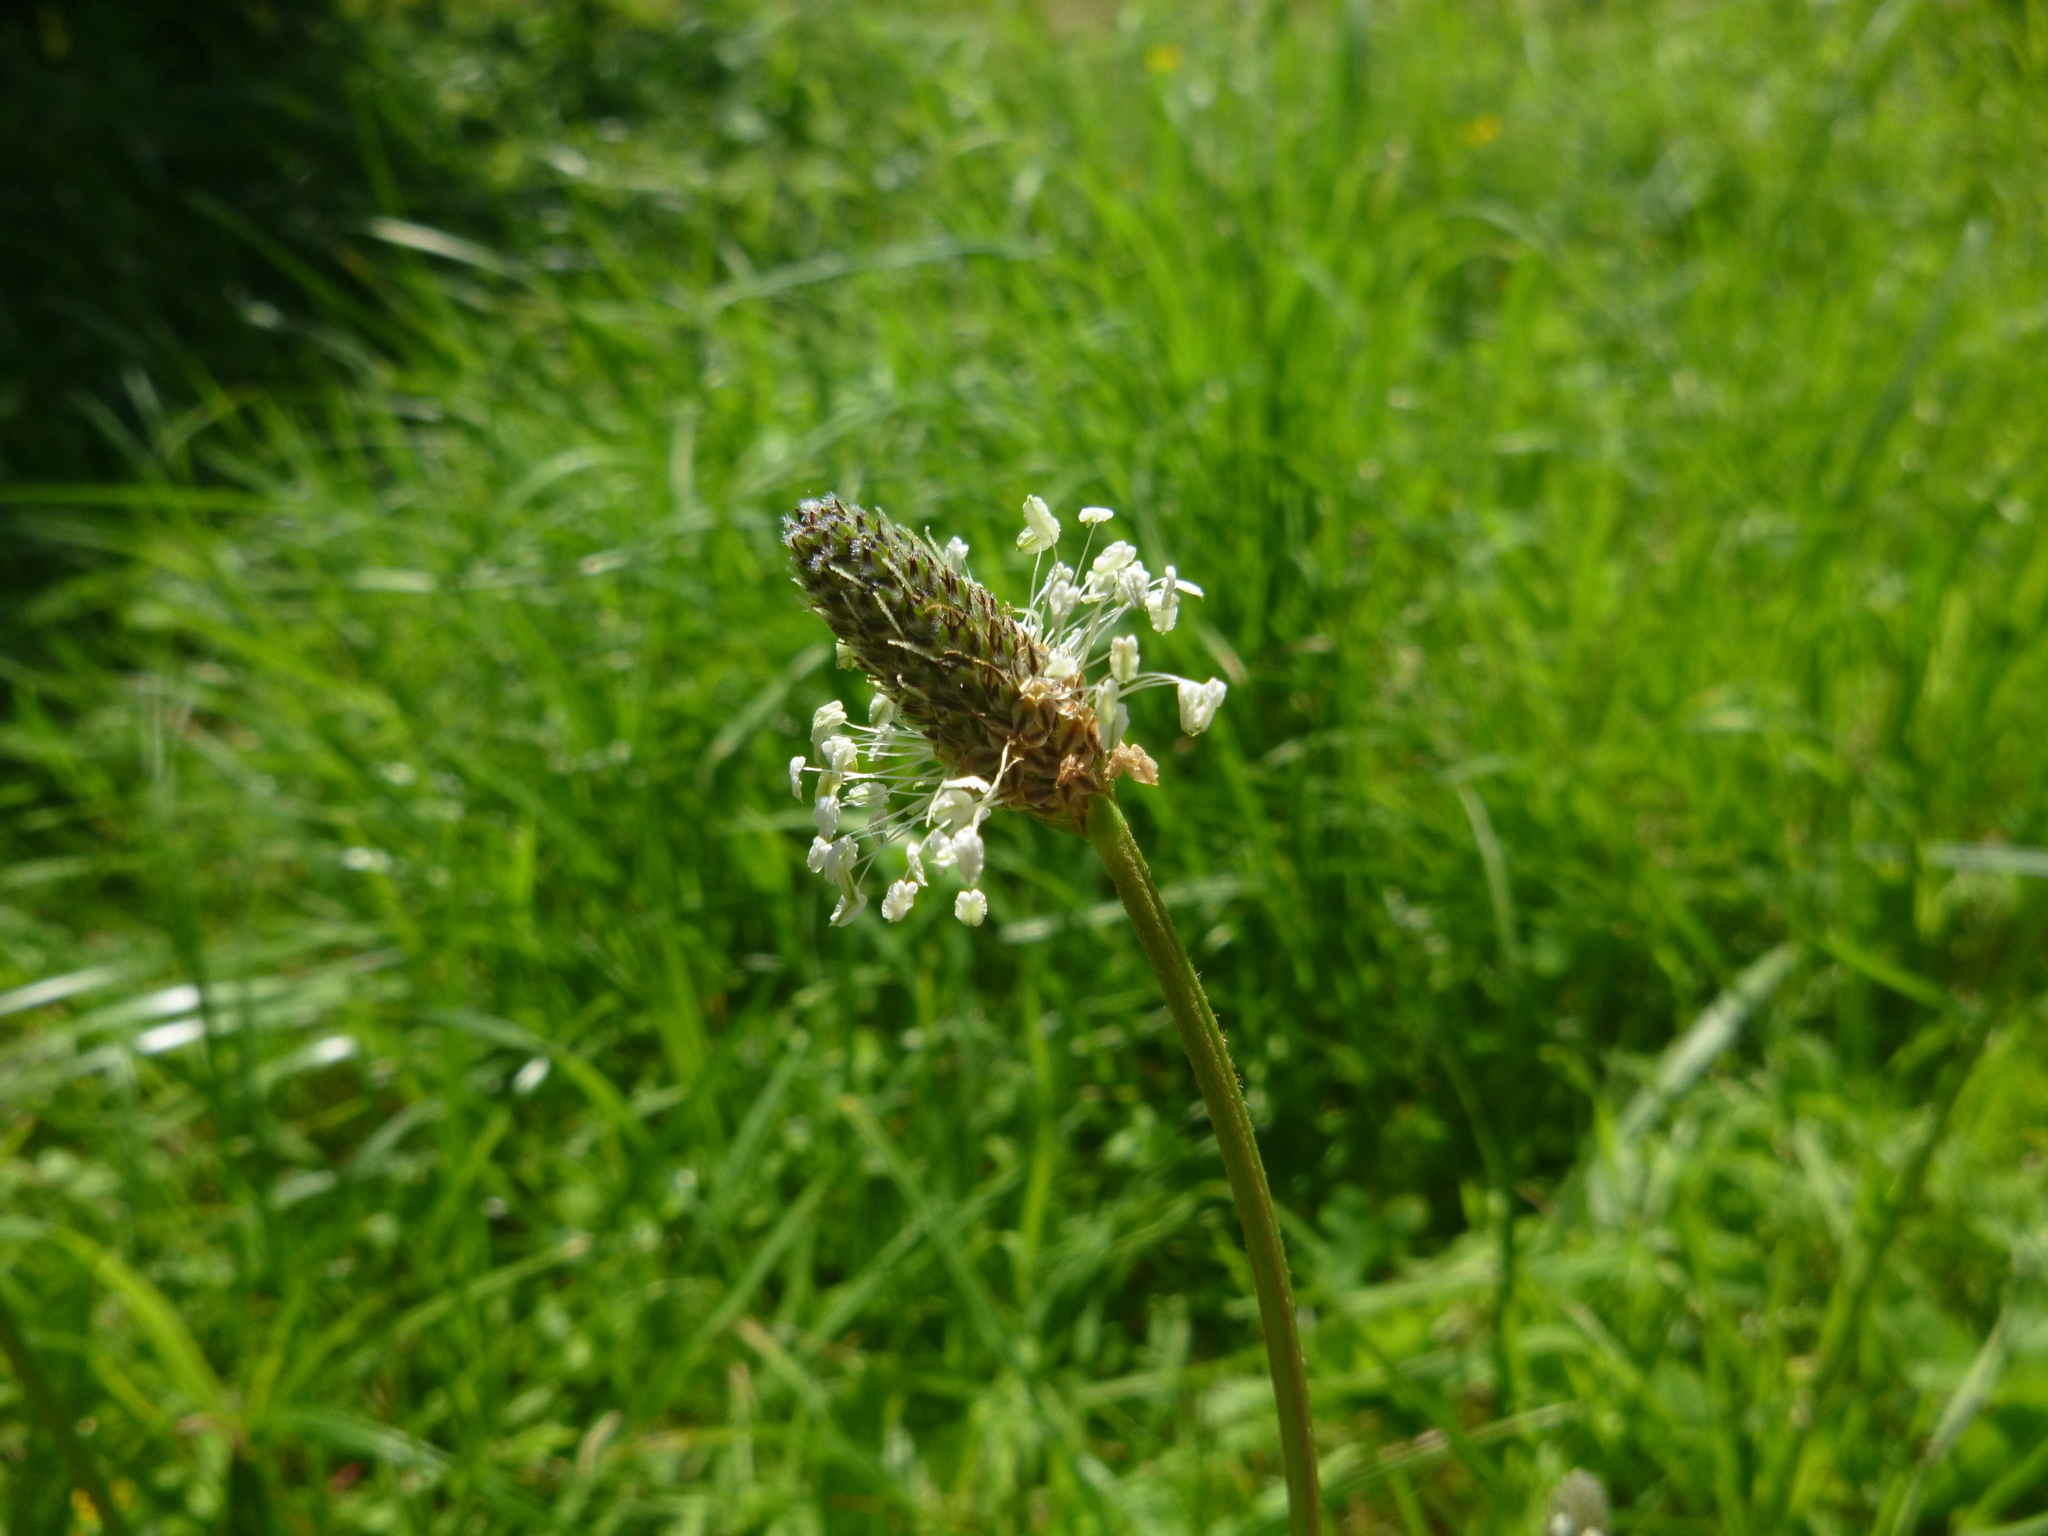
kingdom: Plantae
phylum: Tracheophyta
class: Magnoliopsida
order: Lamiales
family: Plantaginaceae
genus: Plantago
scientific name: Plantago lanceolata
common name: Ribwort plantain
